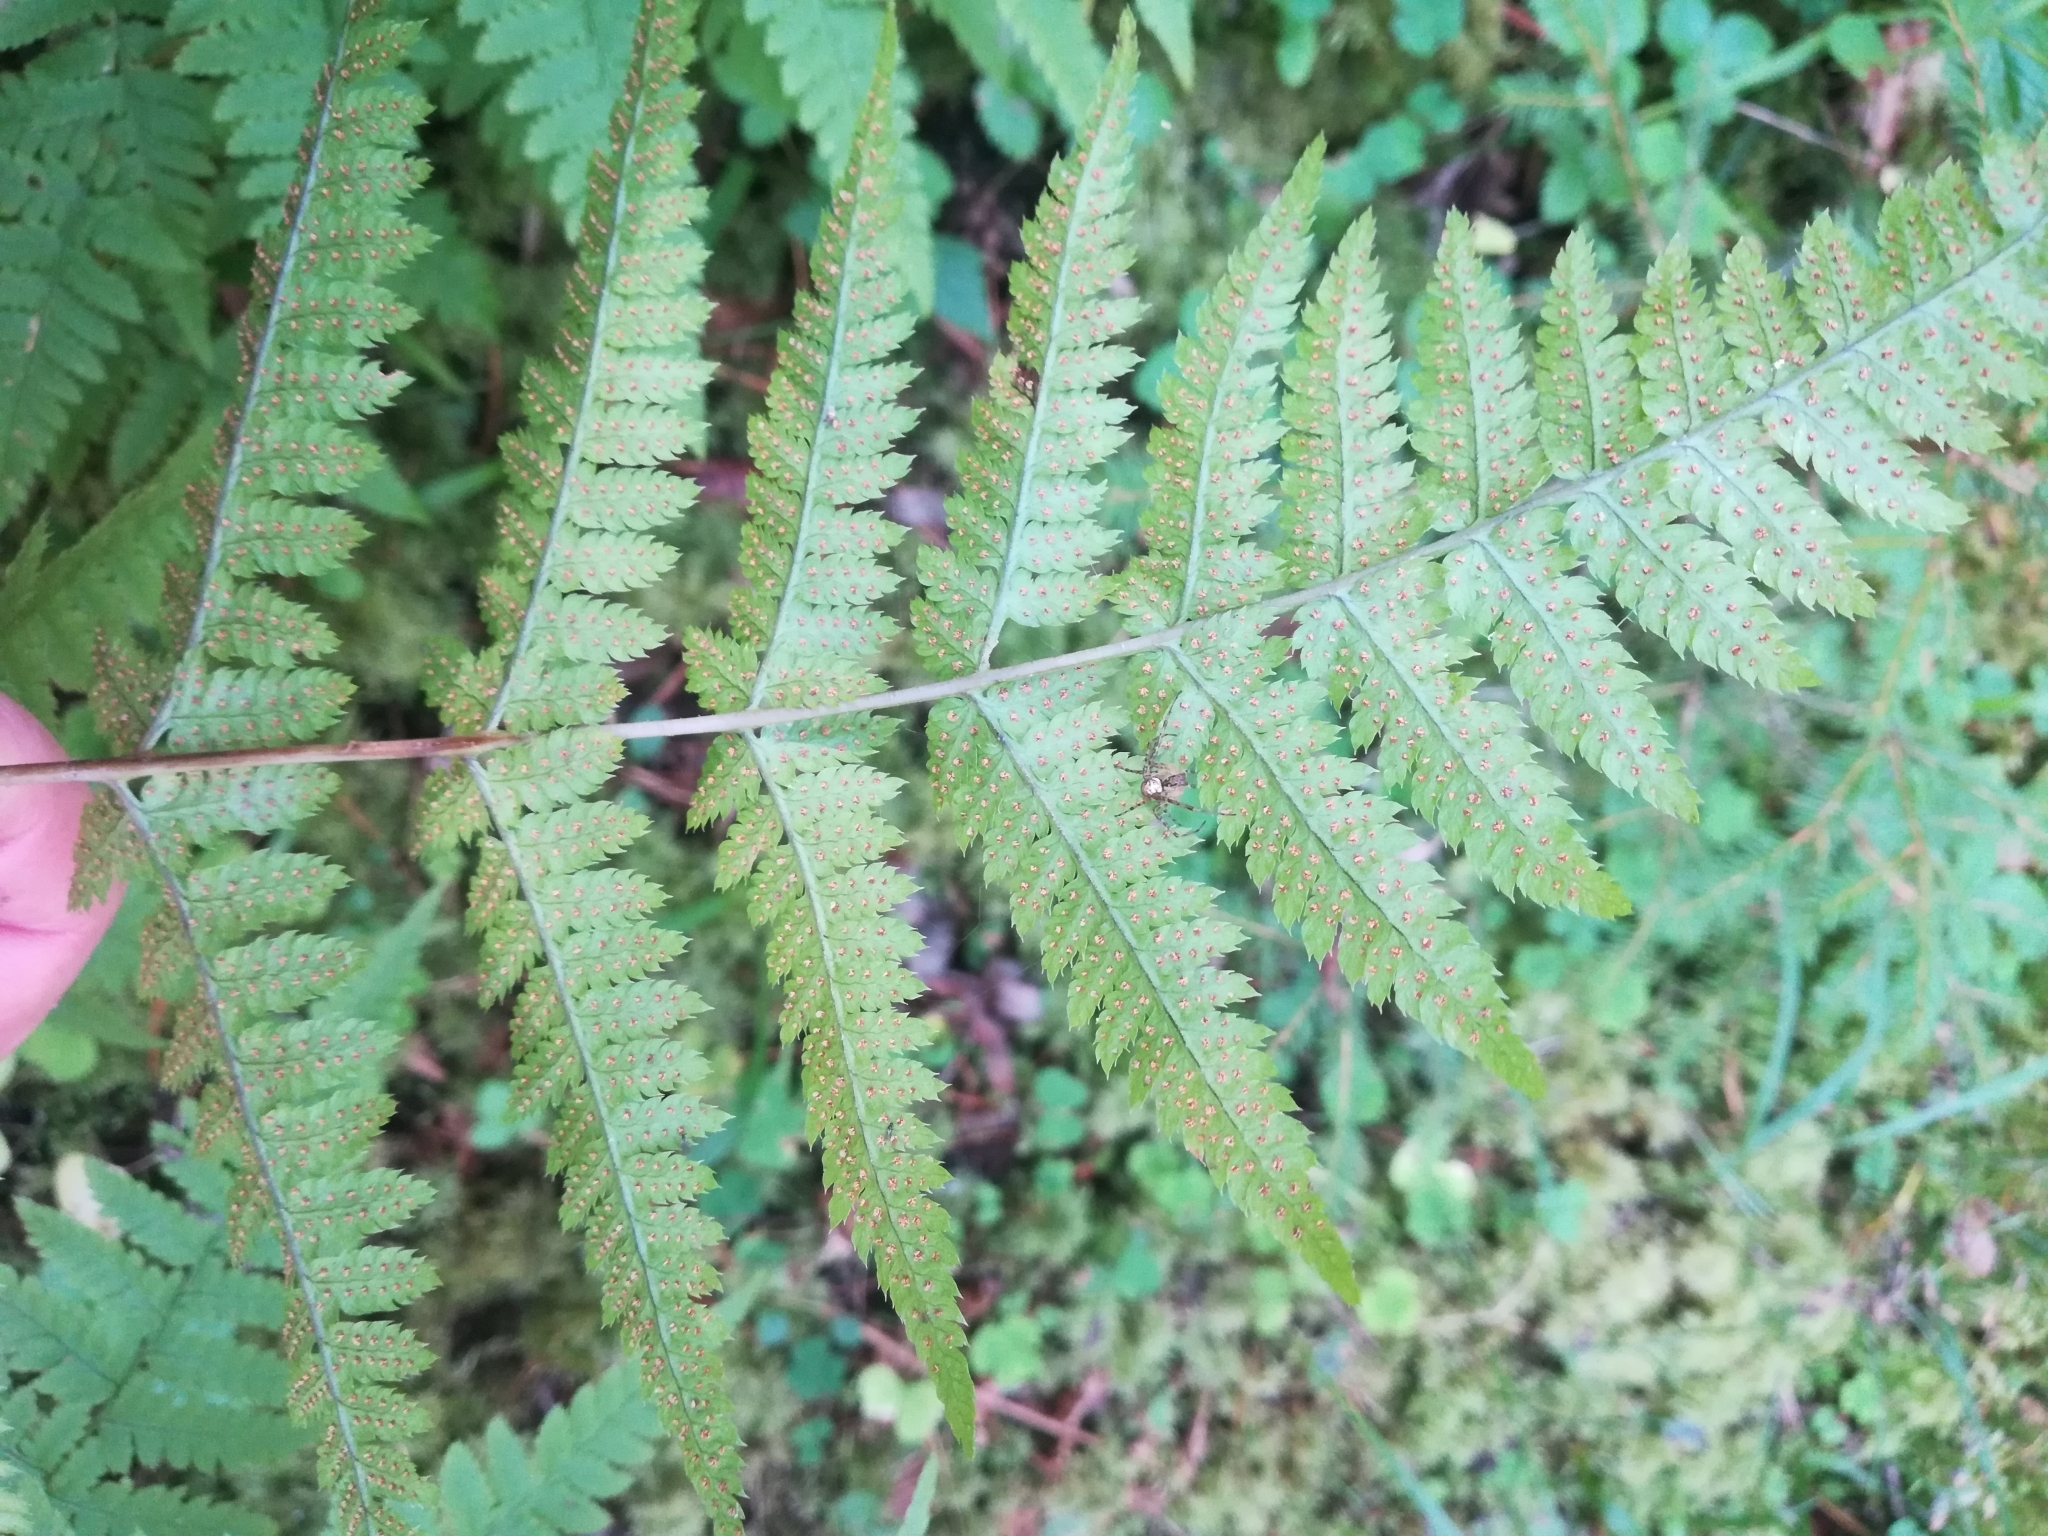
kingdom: Plantae
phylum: Tracheophyta
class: Polypodiopsida
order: Polypodiales
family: Dryopteridaceae
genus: Dryopteris
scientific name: Dryopteris carthusiana
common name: Narrow buckler-fern
